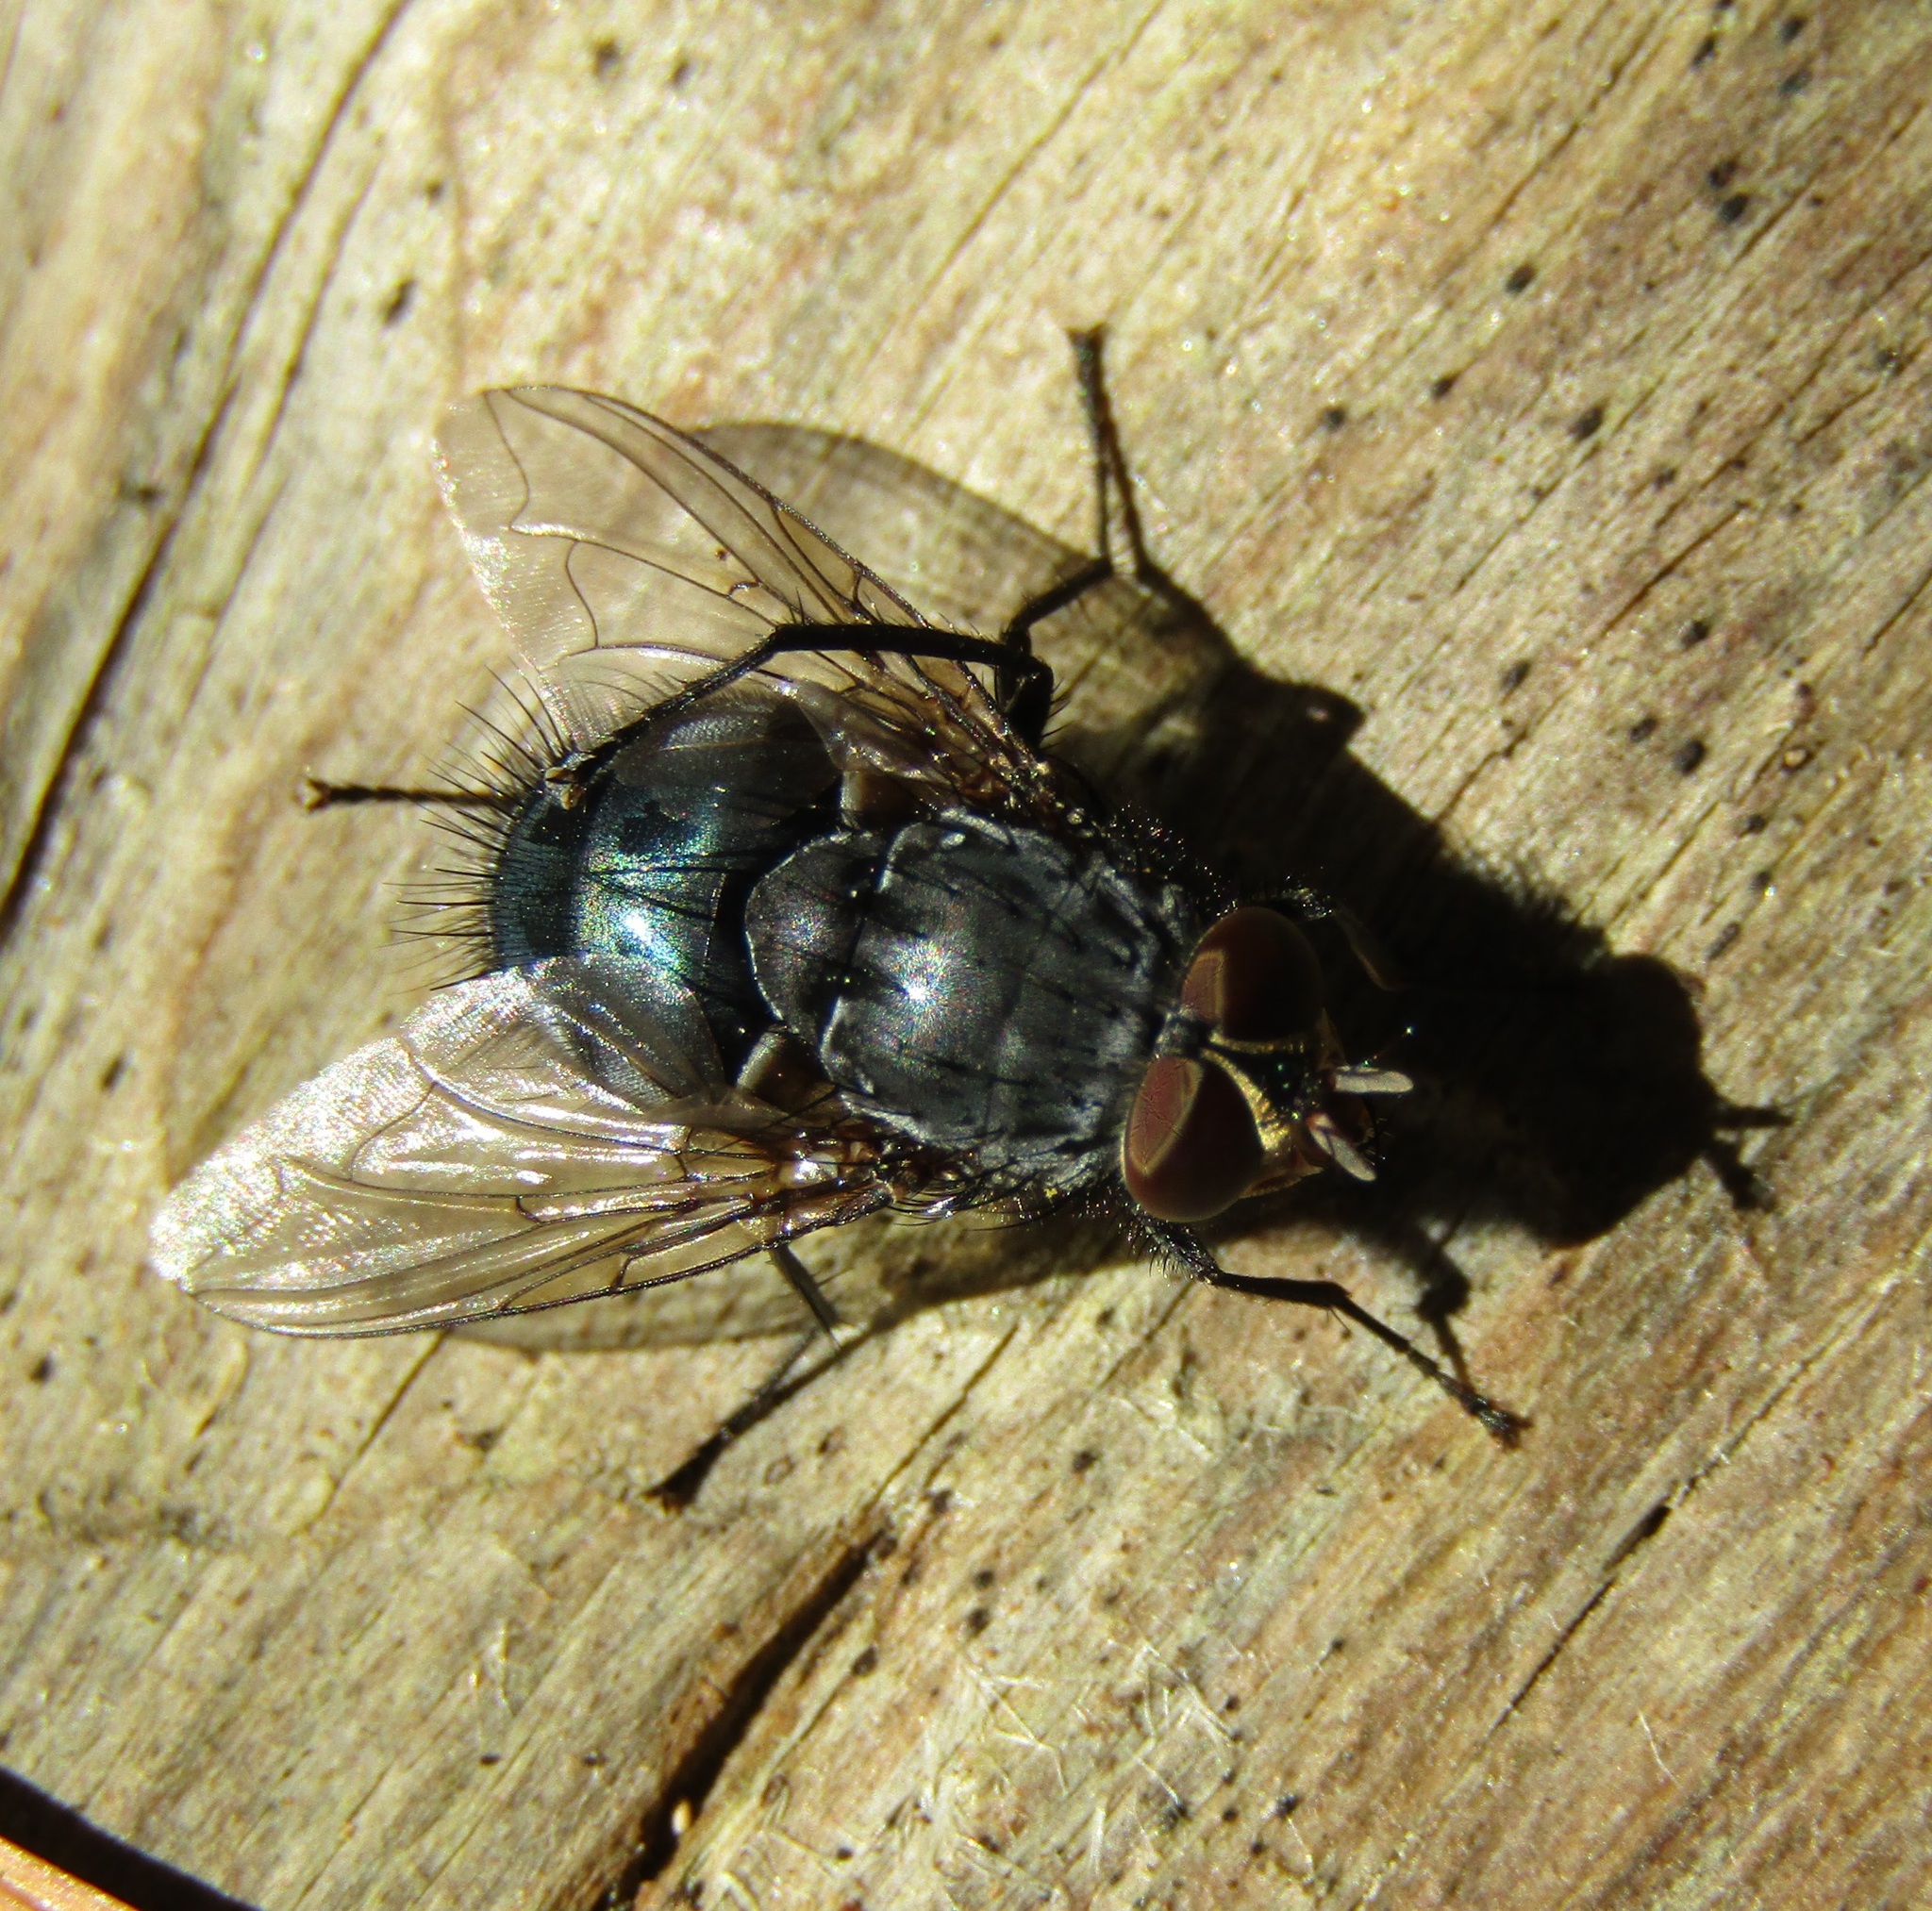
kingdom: Animalia
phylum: Arthropoda
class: Insecta
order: Diptera
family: Calliphoridae
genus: Calliphora
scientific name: Calliphora vicina
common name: Common blow flie
